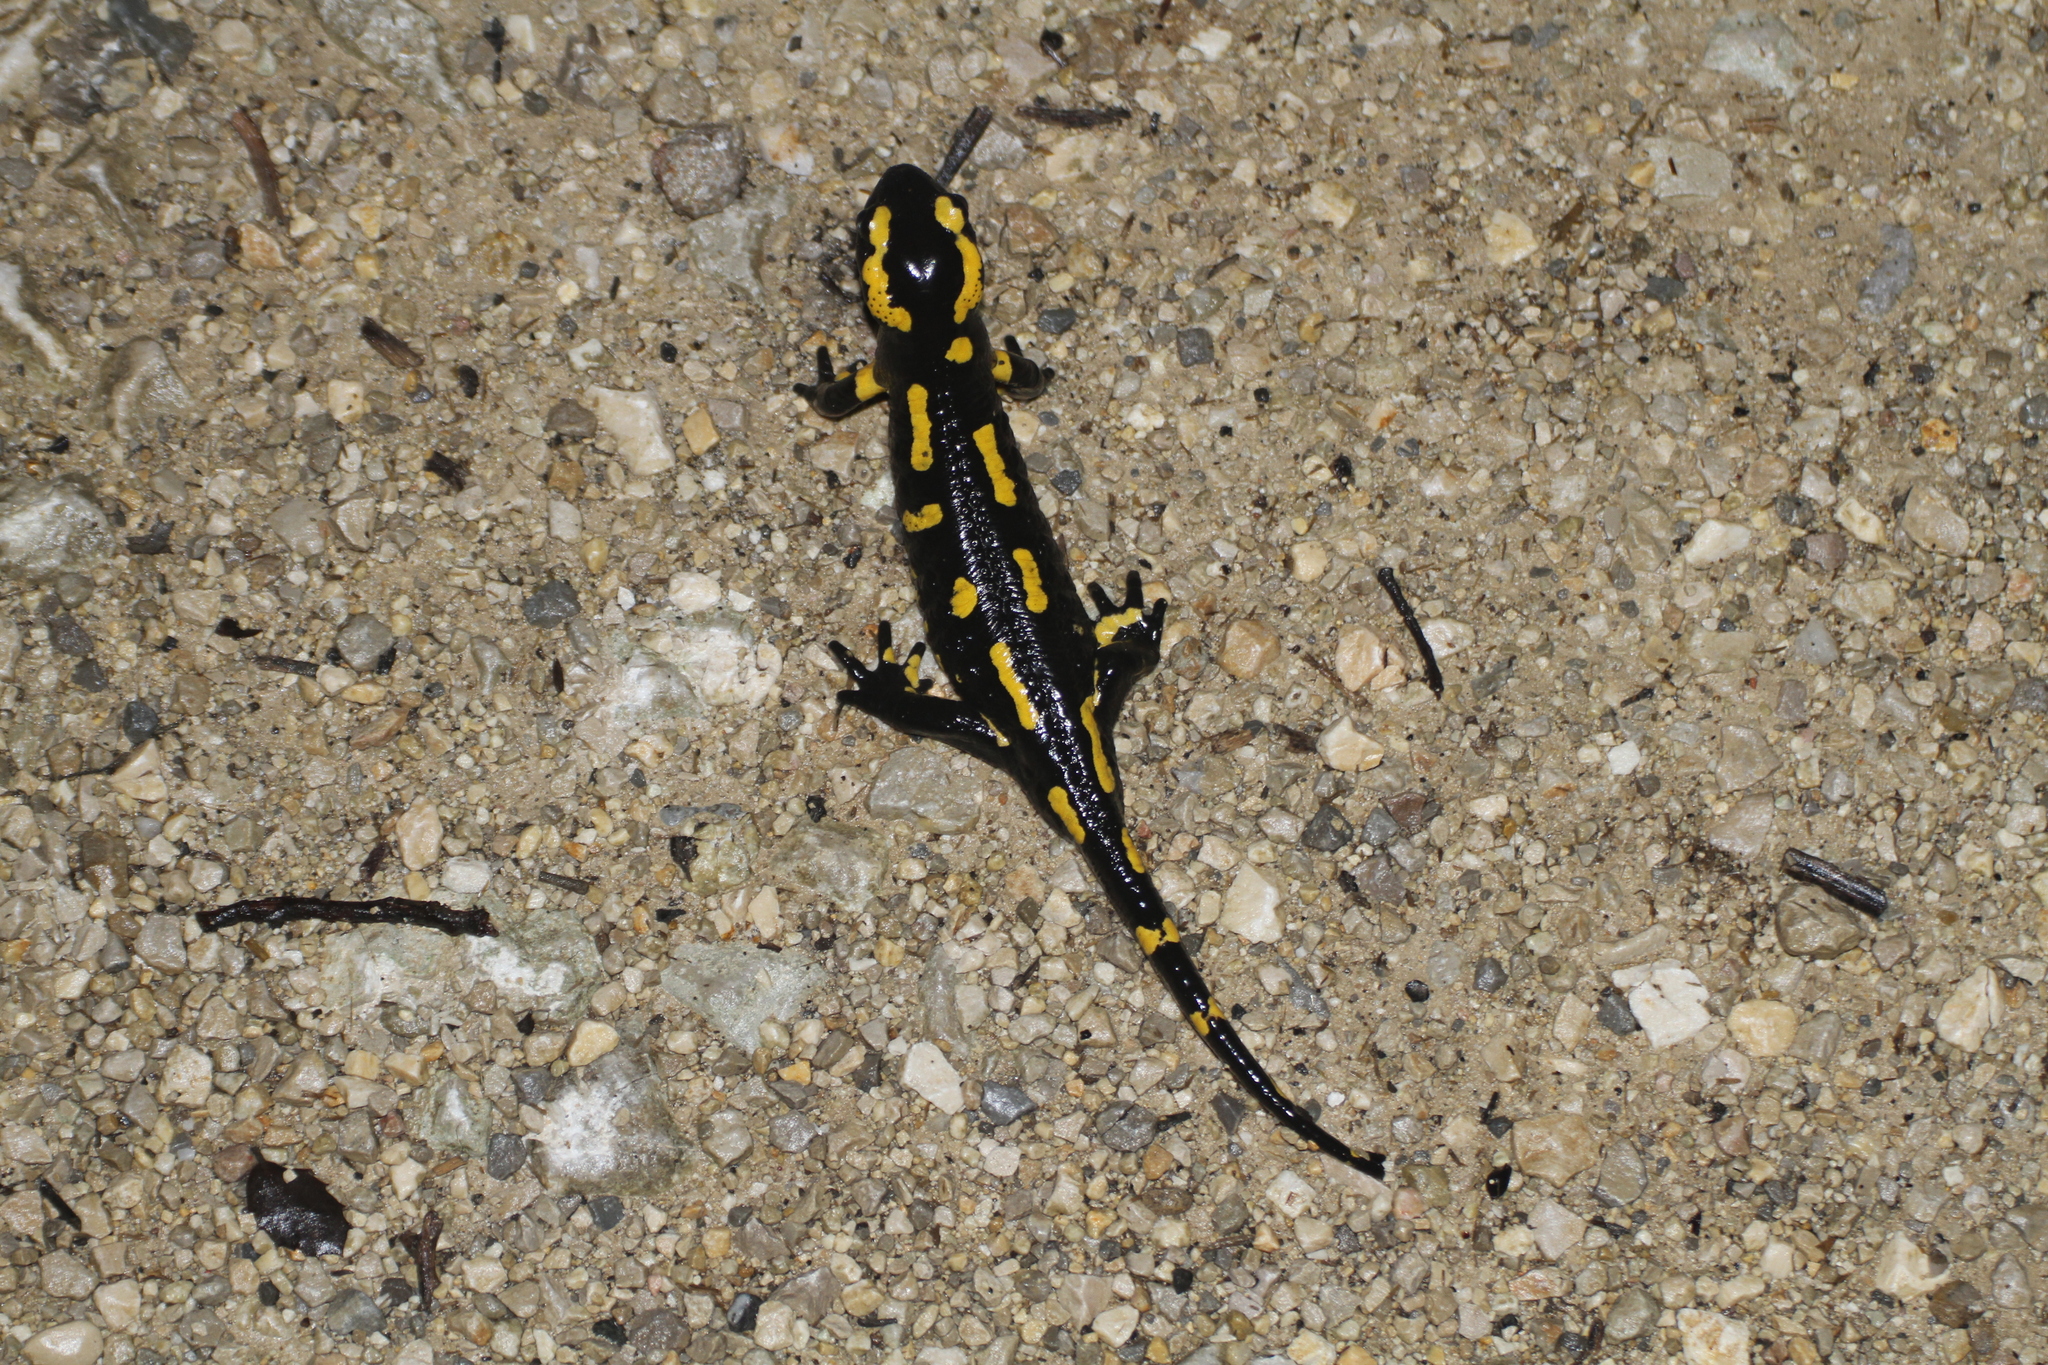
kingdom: Animalia
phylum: Chordata
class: Amphibia
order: Caudata
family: Salamandridae
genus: Salamandra
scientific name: Salamandra salamandra
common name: Fire salamander
